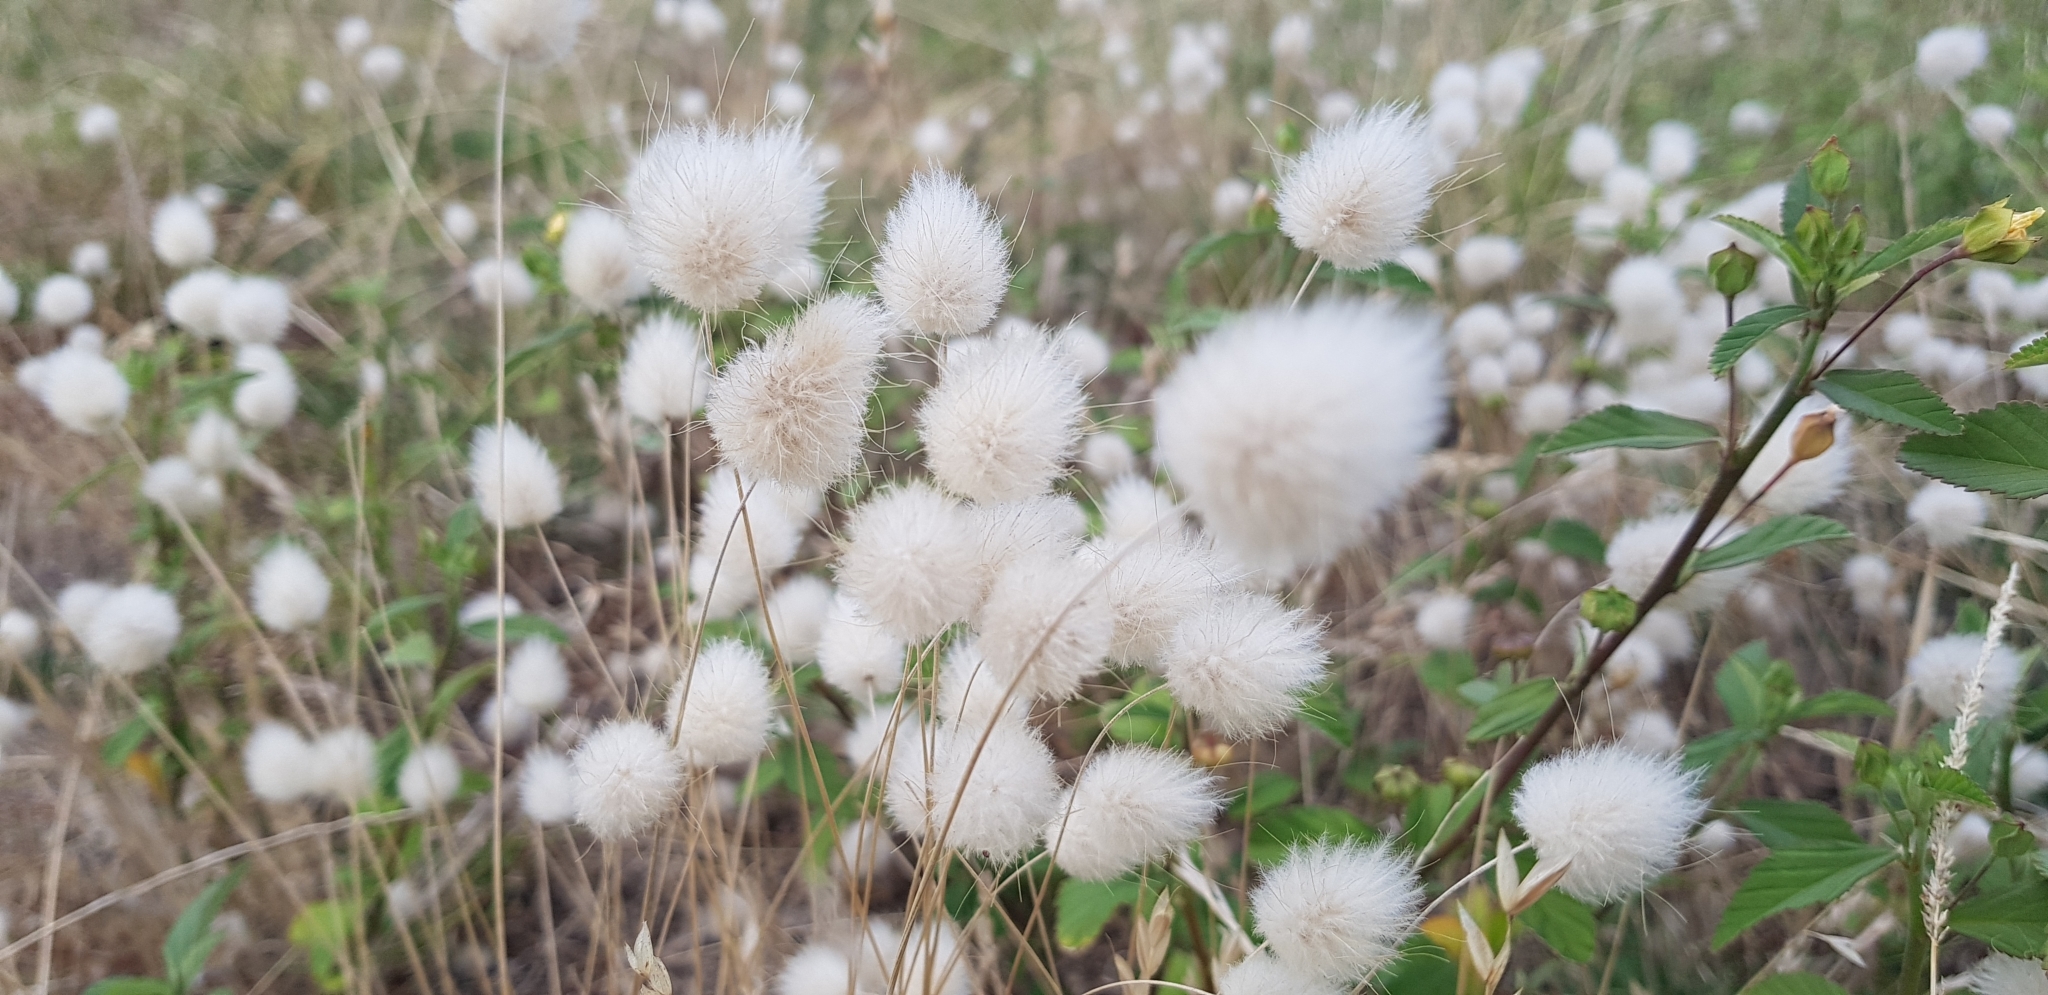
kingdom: Plantae
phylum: Tracheophyta
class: Liliopsida
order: Poales
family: Poaceae
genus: Lagurus
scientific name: Lagurus ovatus
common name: Hare's-tail
